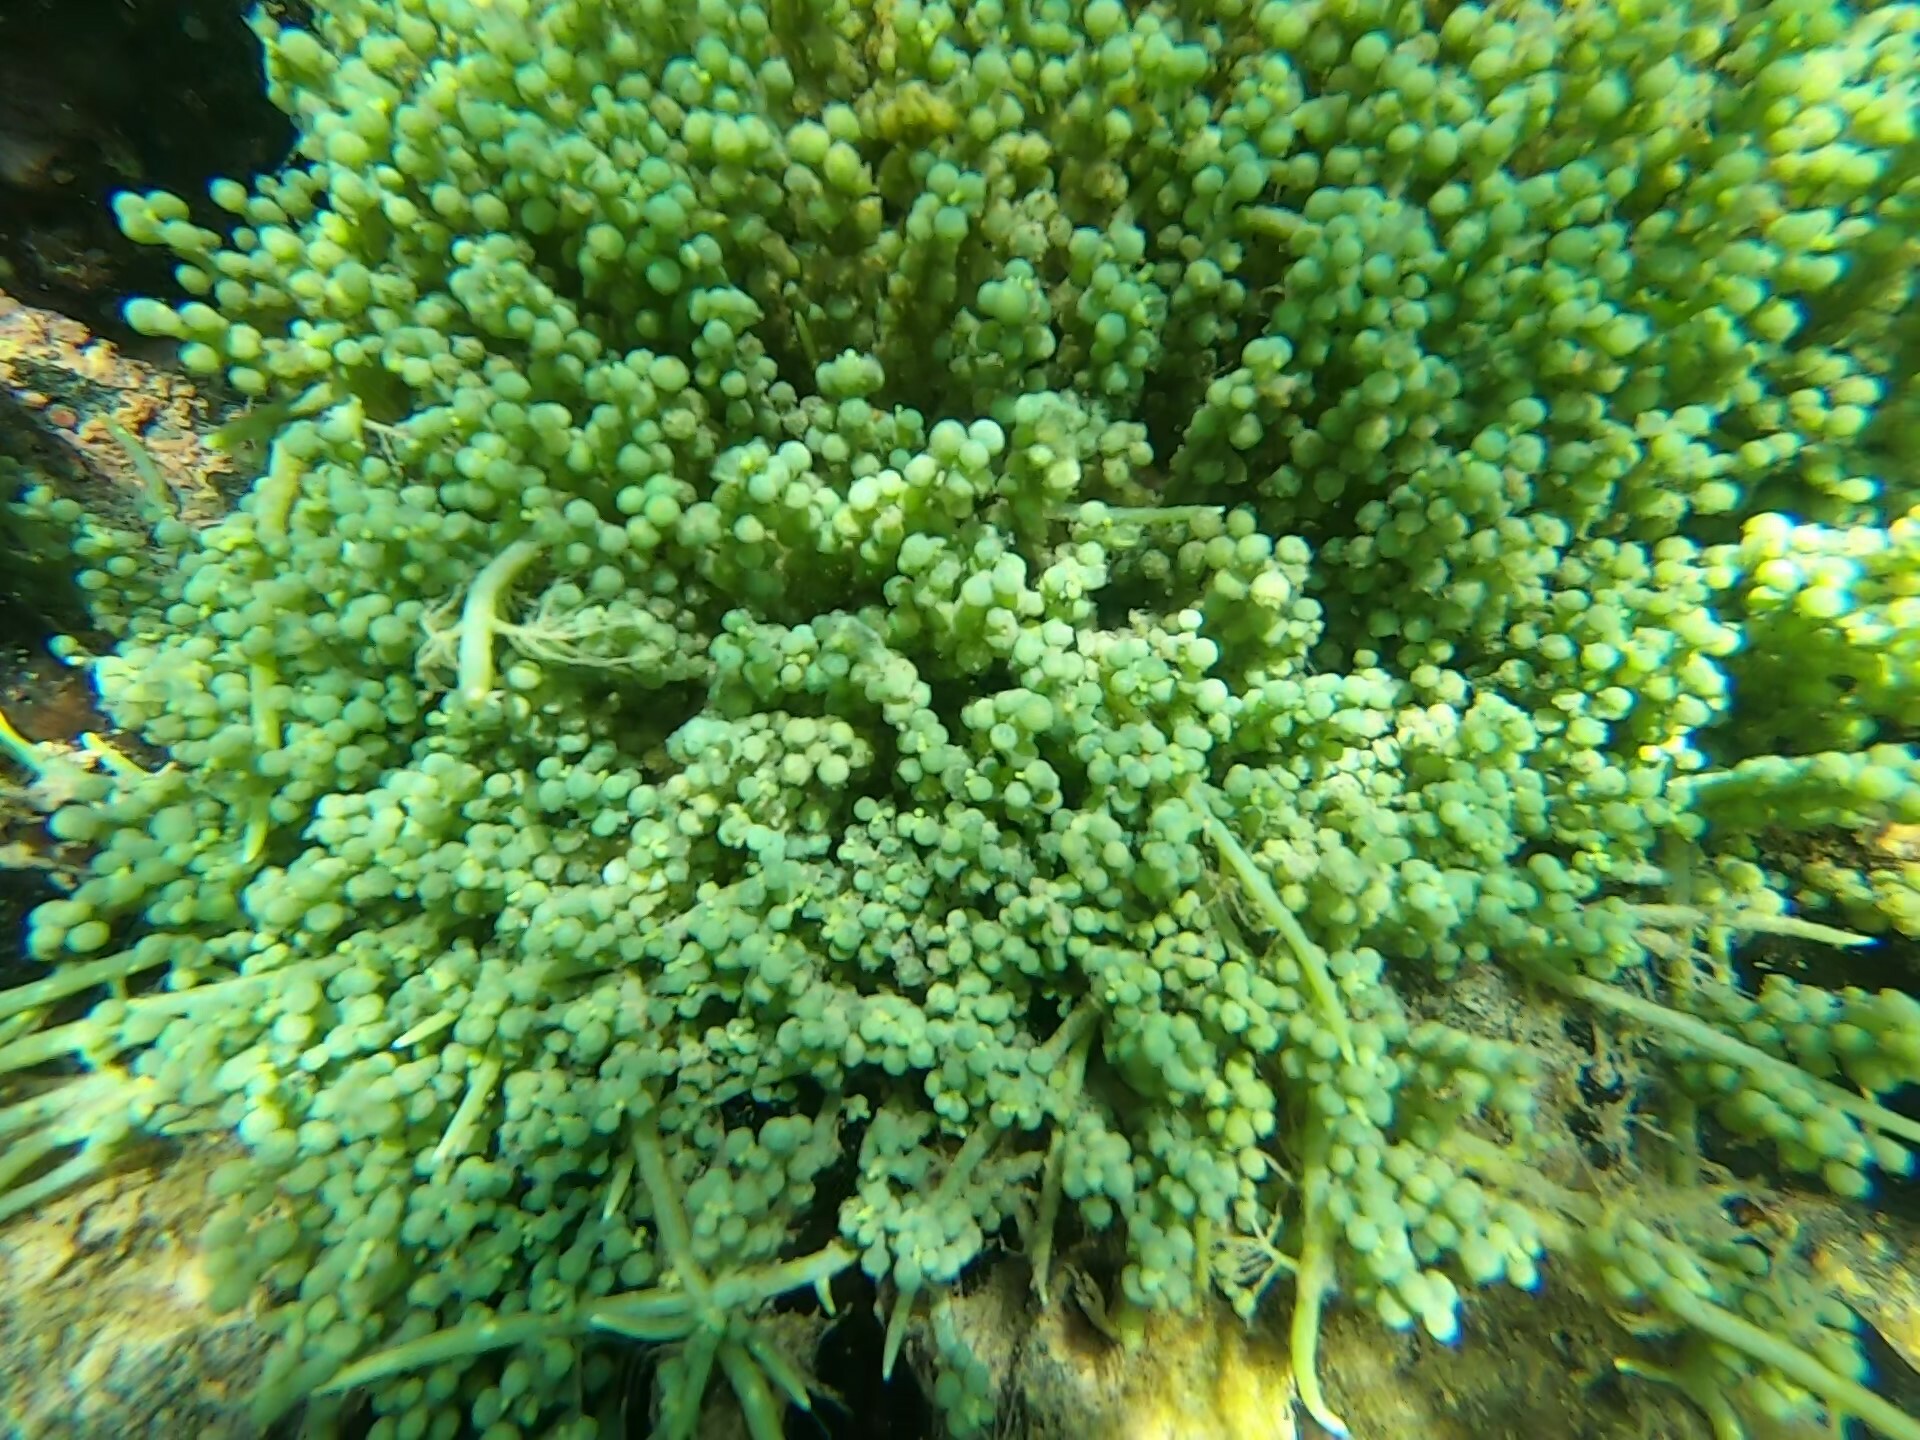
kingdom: Plantae
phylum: Chlorophyta
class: Ulvophyceae
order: Bryopsidales
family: Caulerpaceae
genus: Caulerpa
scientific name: Caulerpa racemosa
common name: Green grape algae
